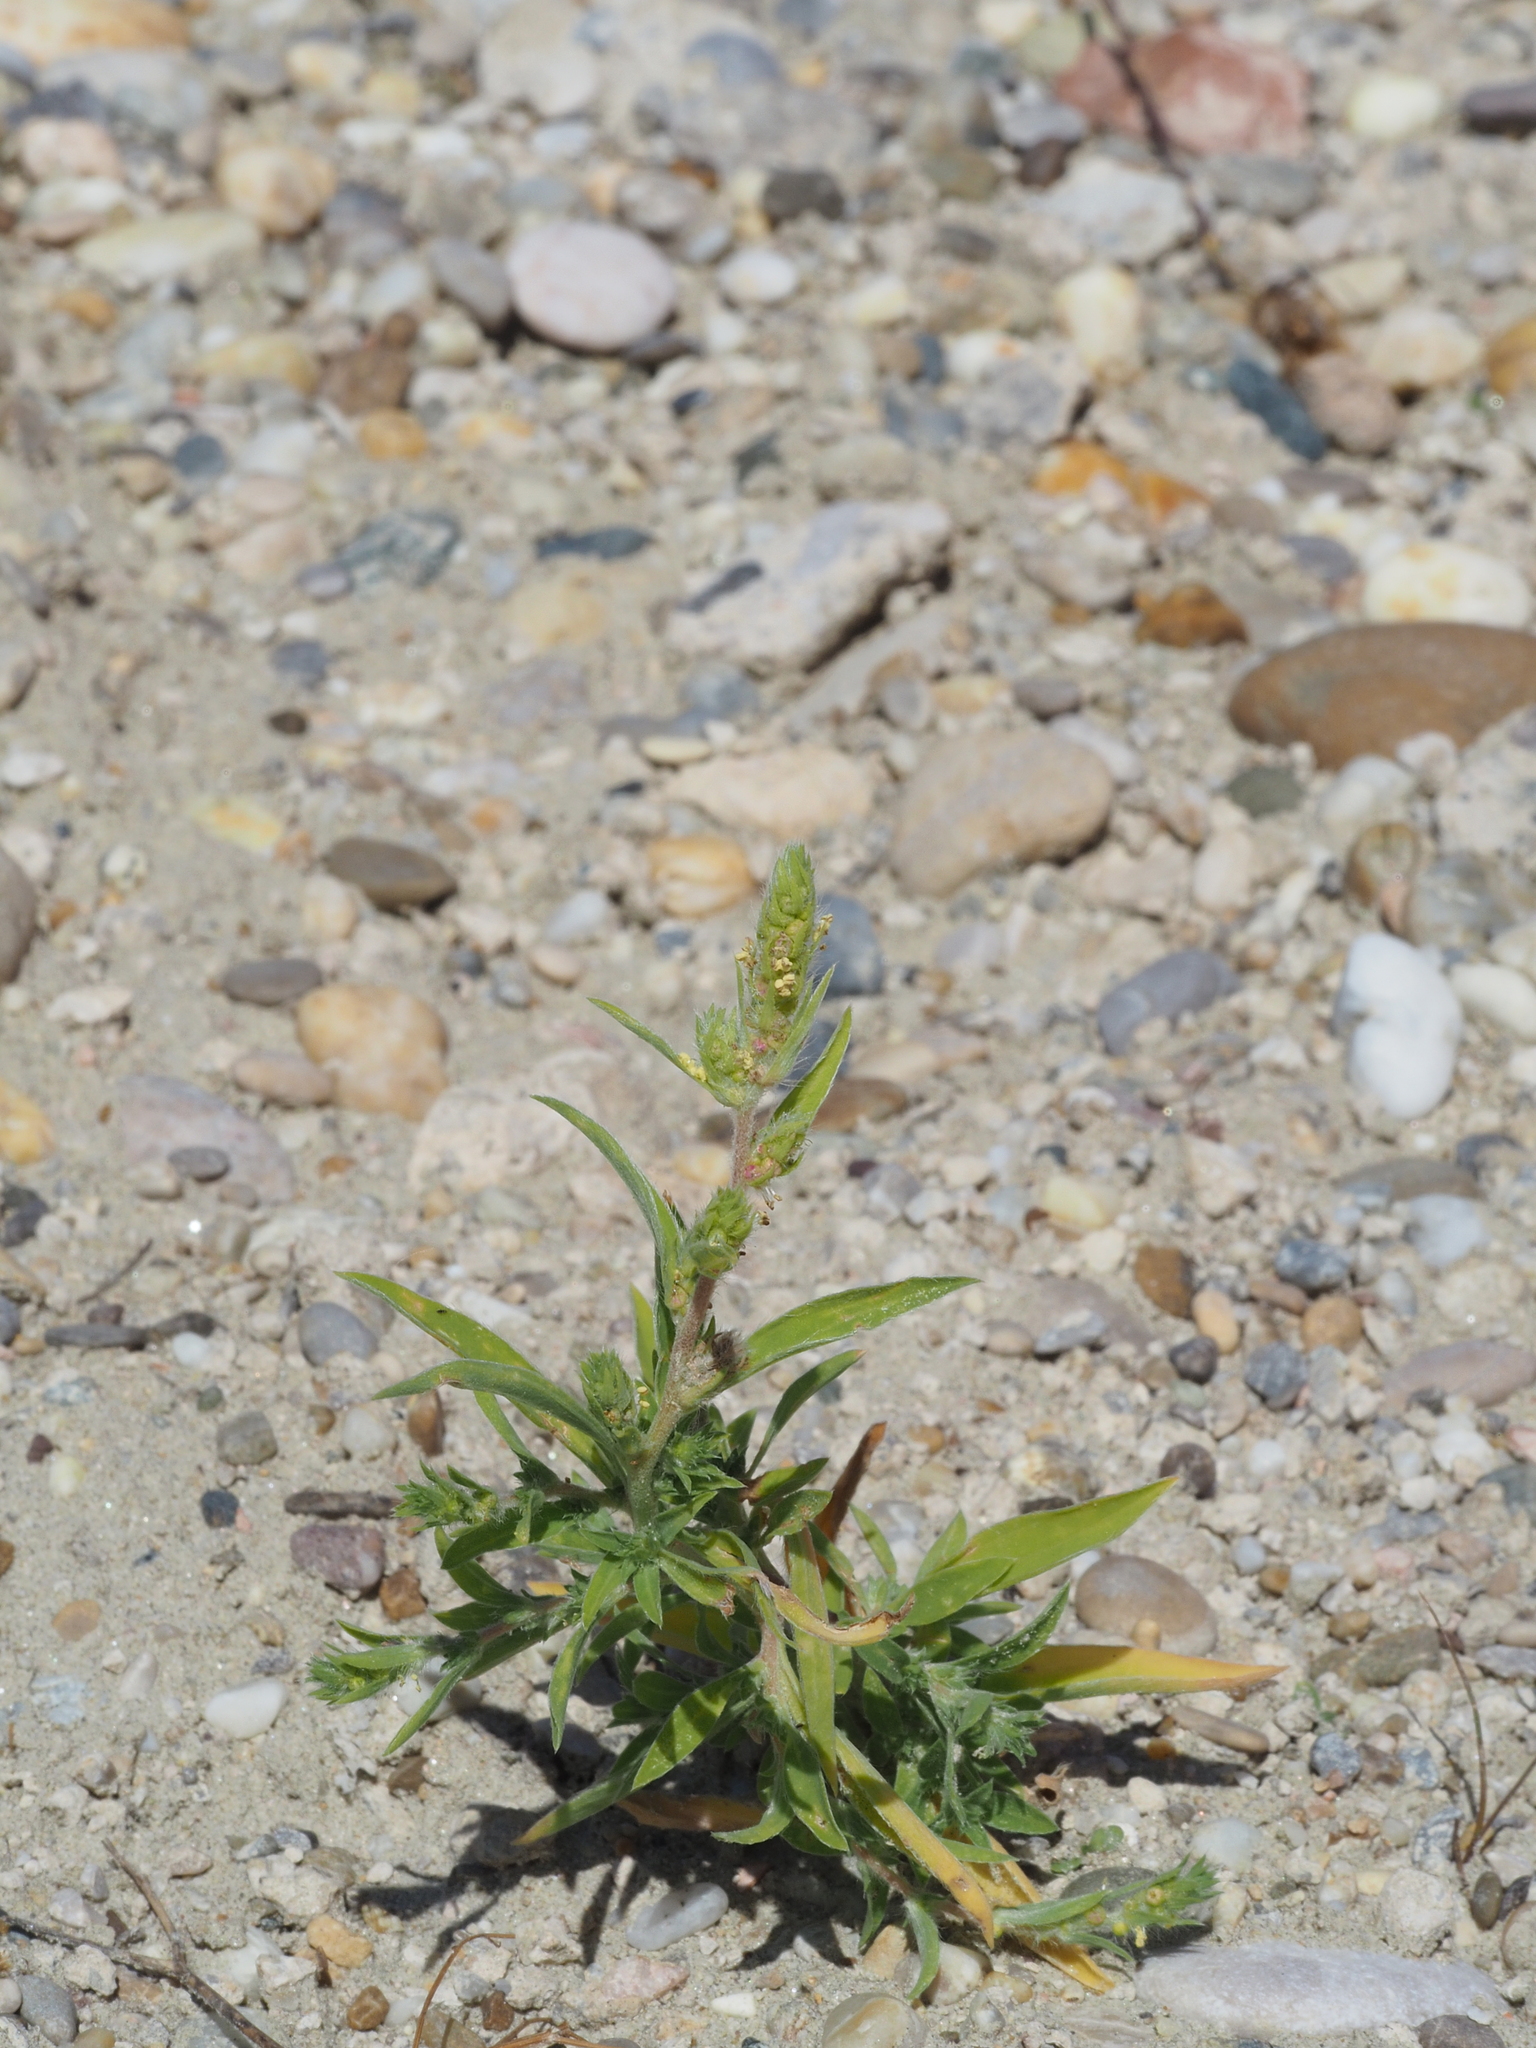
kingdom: Plantae
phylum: Tracheophyta
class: Magnoliopsida
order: Caryophyllales
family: Amaranthaceae
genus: Bassia
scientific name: Bassia scoparia
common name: Belvedere
